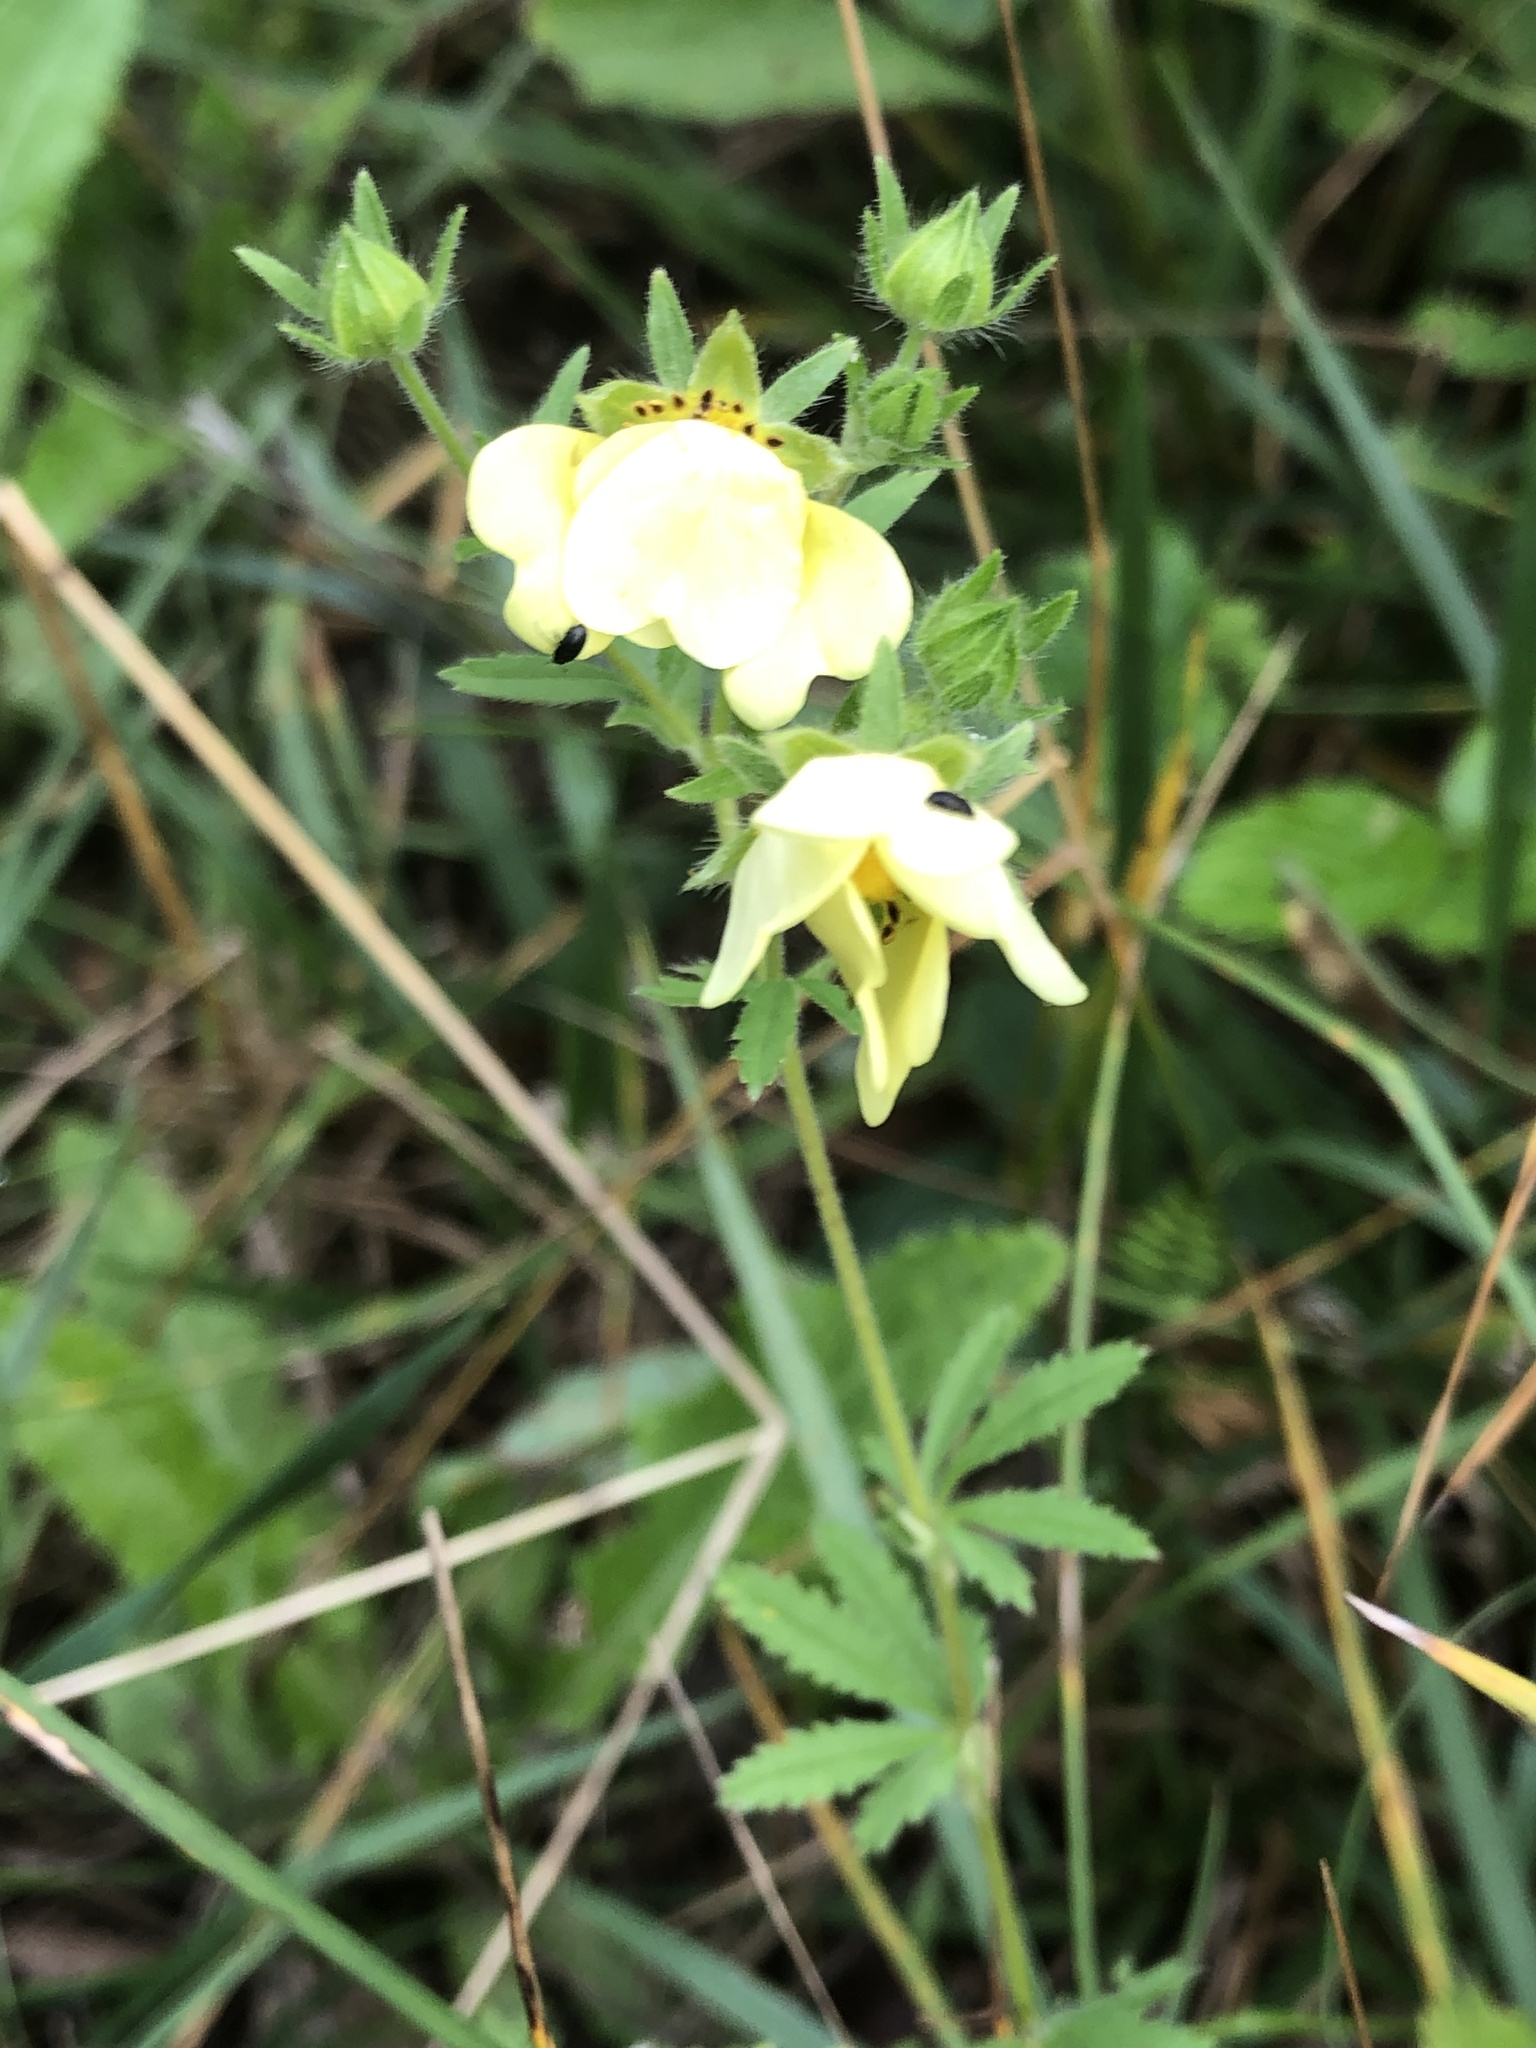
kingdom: Plantae
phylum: Tracheophyta
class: Magnoliopsida
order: Rosales
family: Rosaceae
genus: Potentilla
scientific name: Potentilla recta
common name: Sulphur cinquefoil
